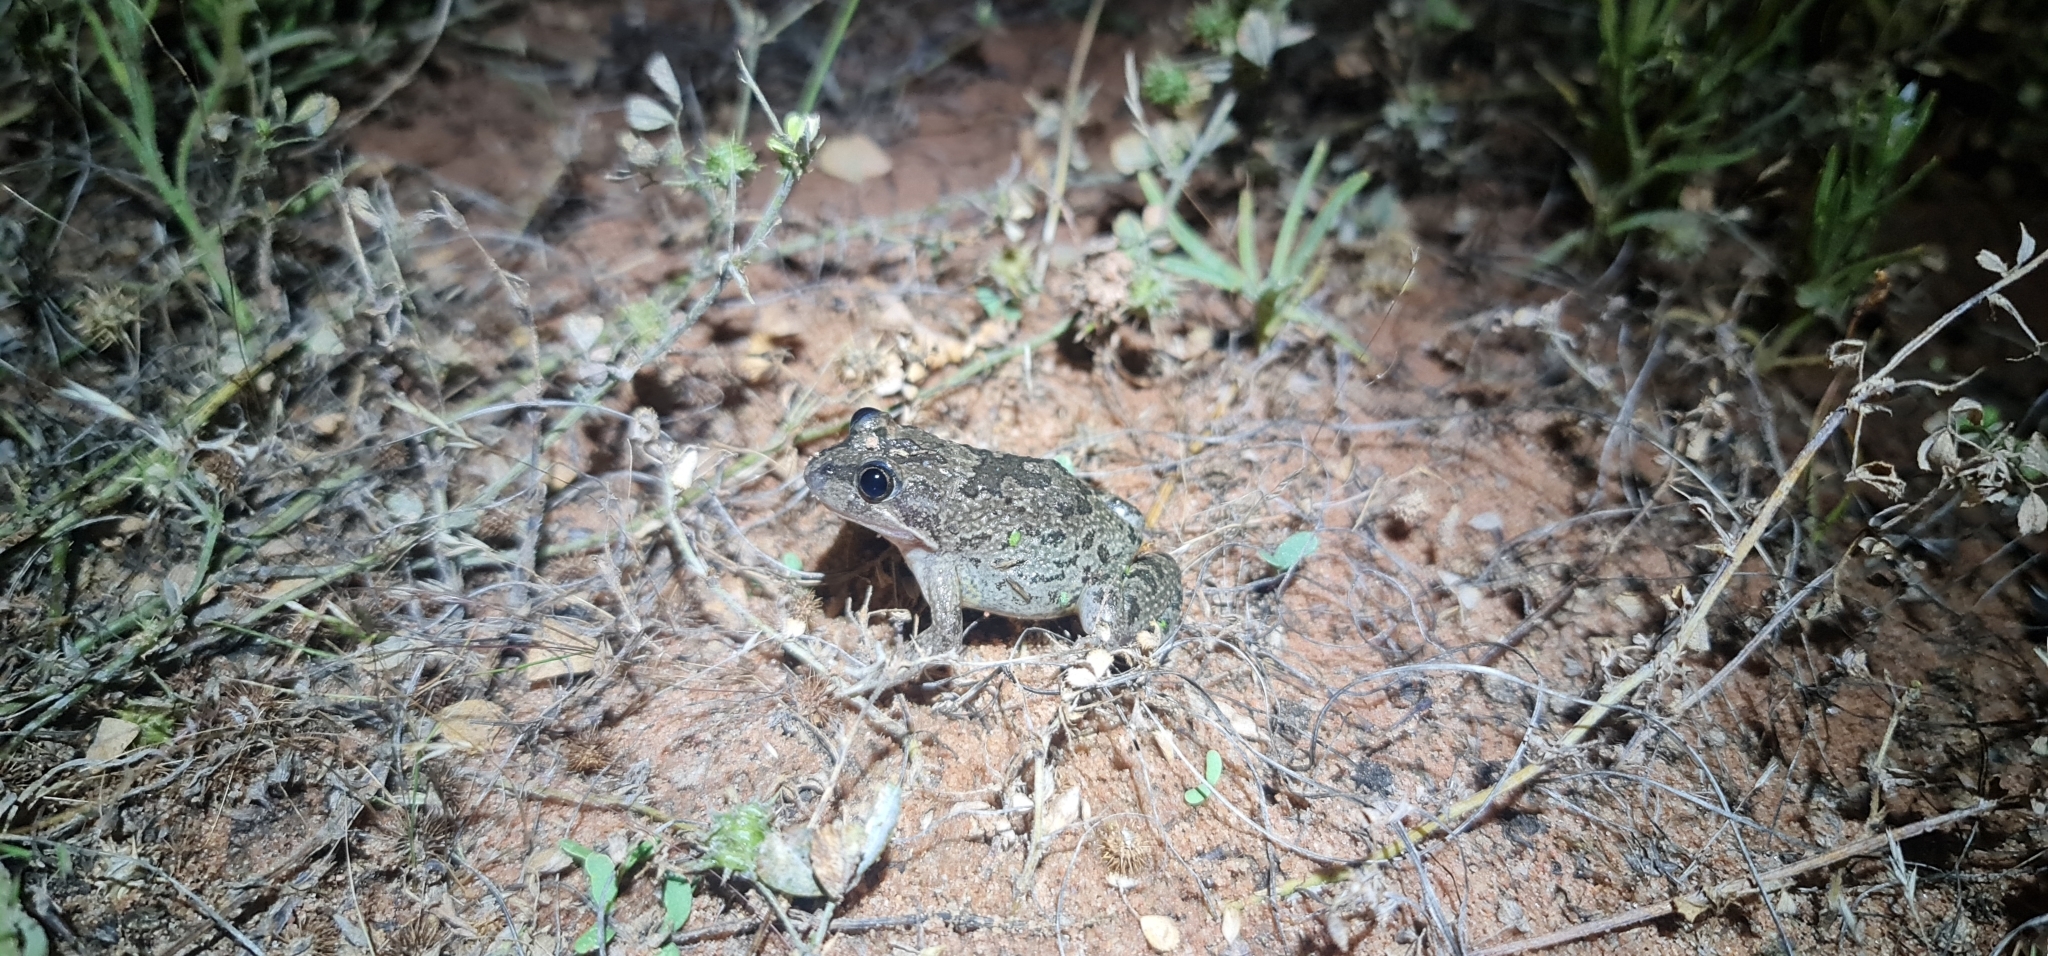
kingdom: Animalia
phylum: Chordata
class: Amphibia
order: Anura
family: Limnodynastidae
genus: Limnodynastes
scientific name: Limnodynastes fletcheri
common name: Barking frog
